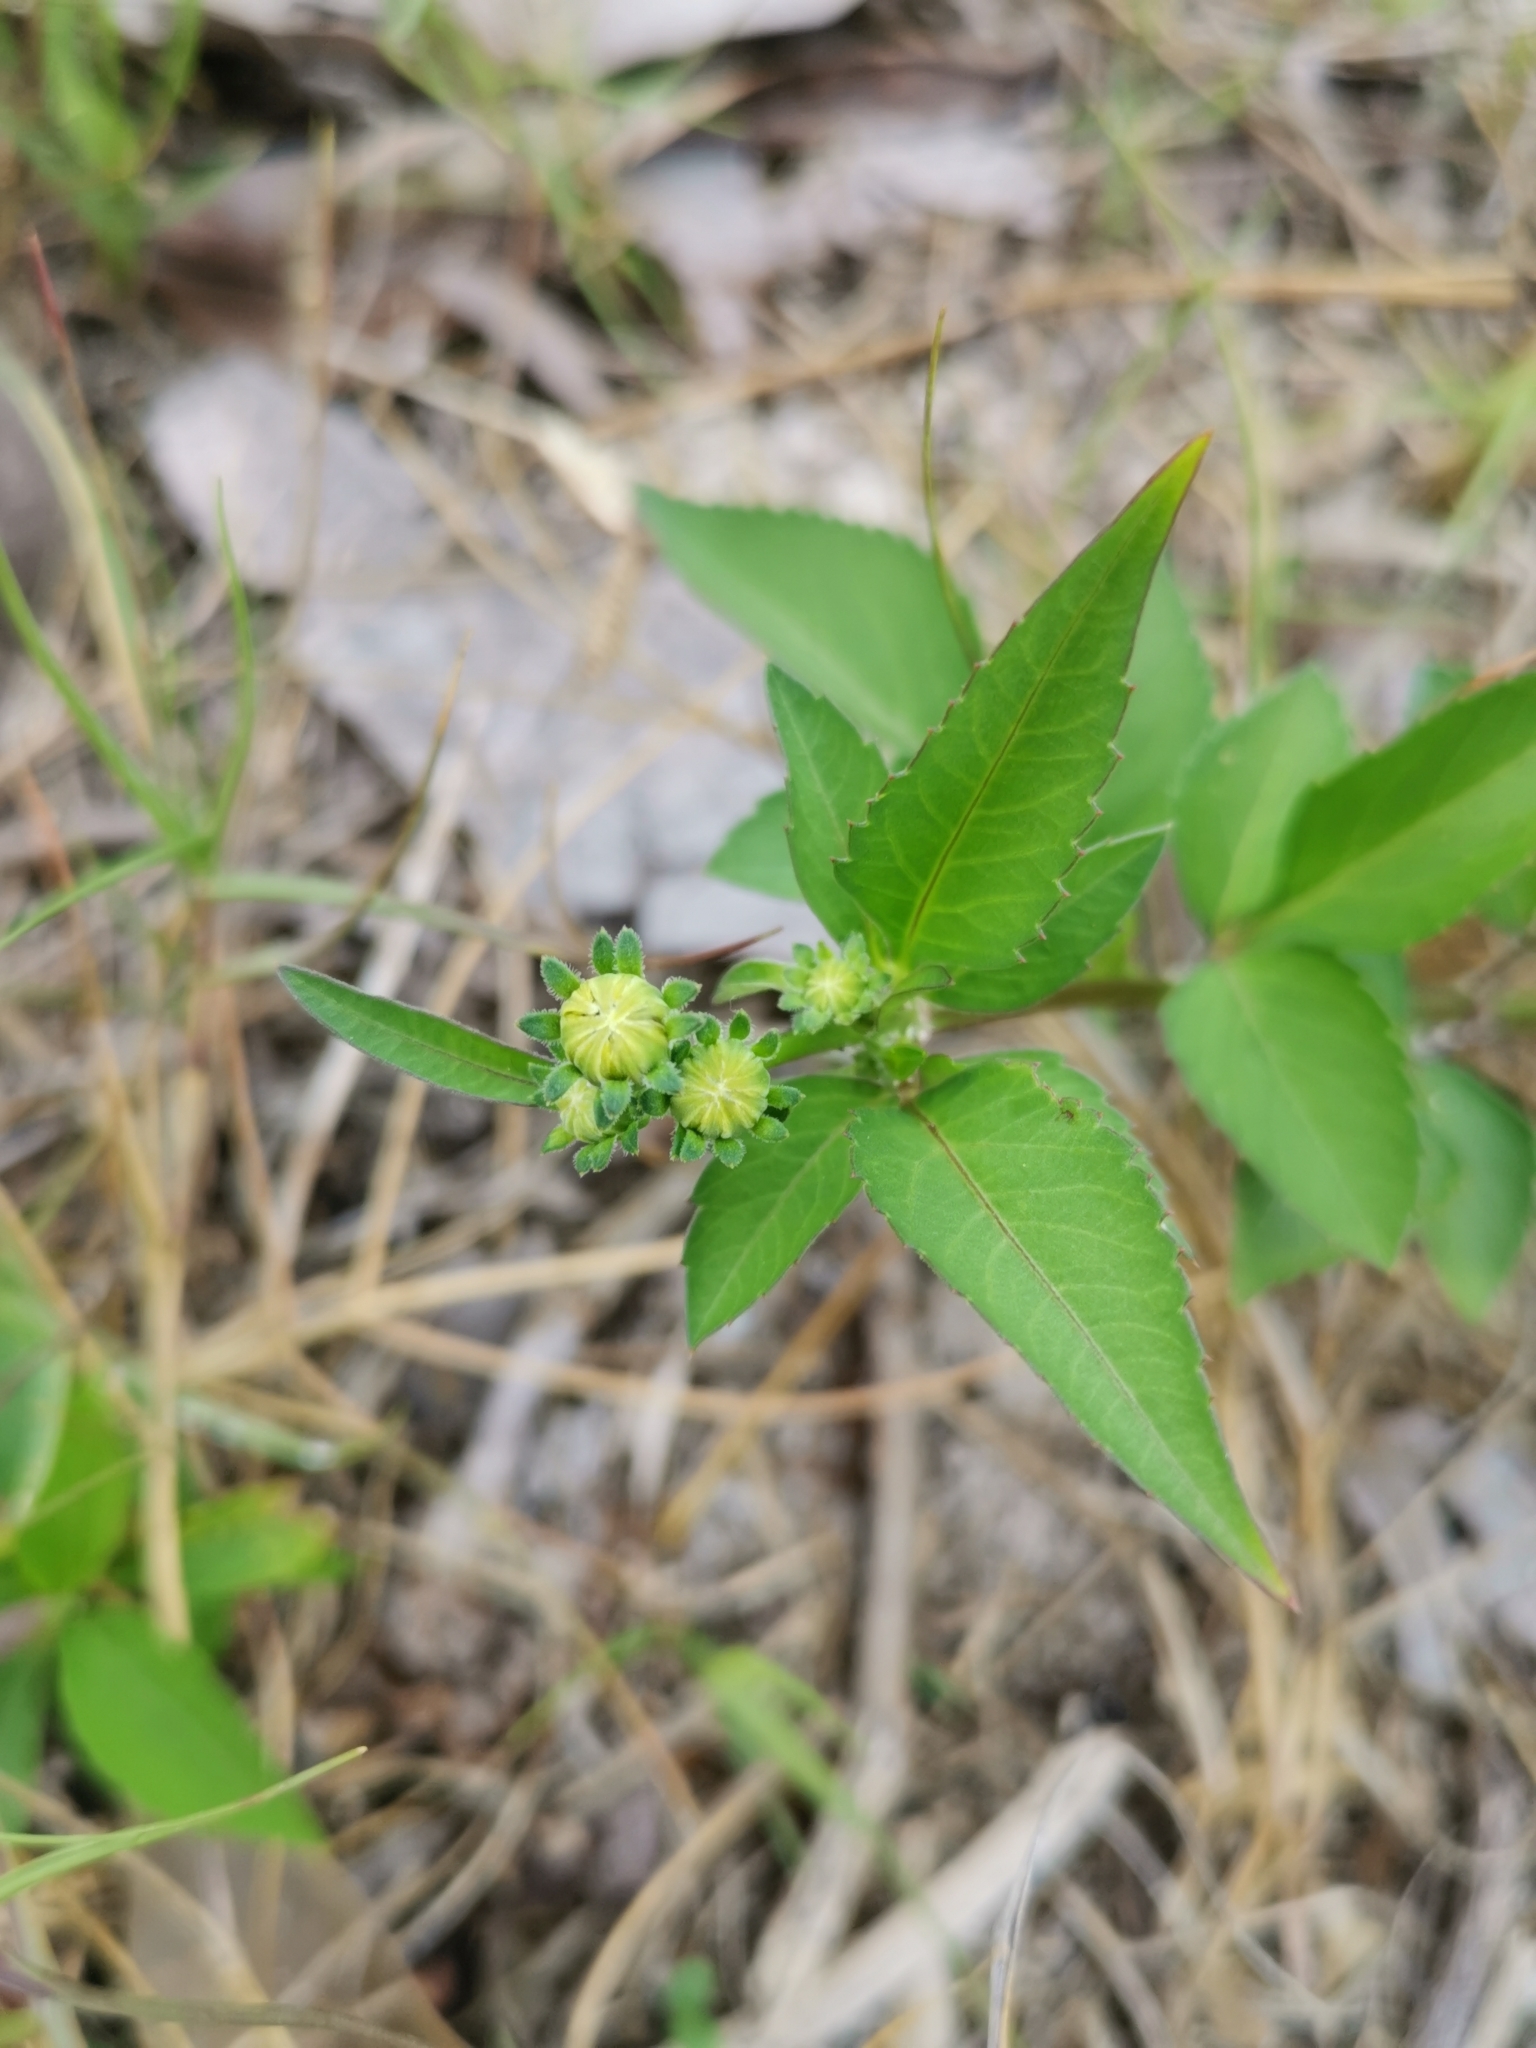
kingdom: Plantae
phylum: Tracheophyta
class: Magnoliopsida
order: Asterales
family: Asteraceae
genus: Bidens
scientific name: Bidens alba
